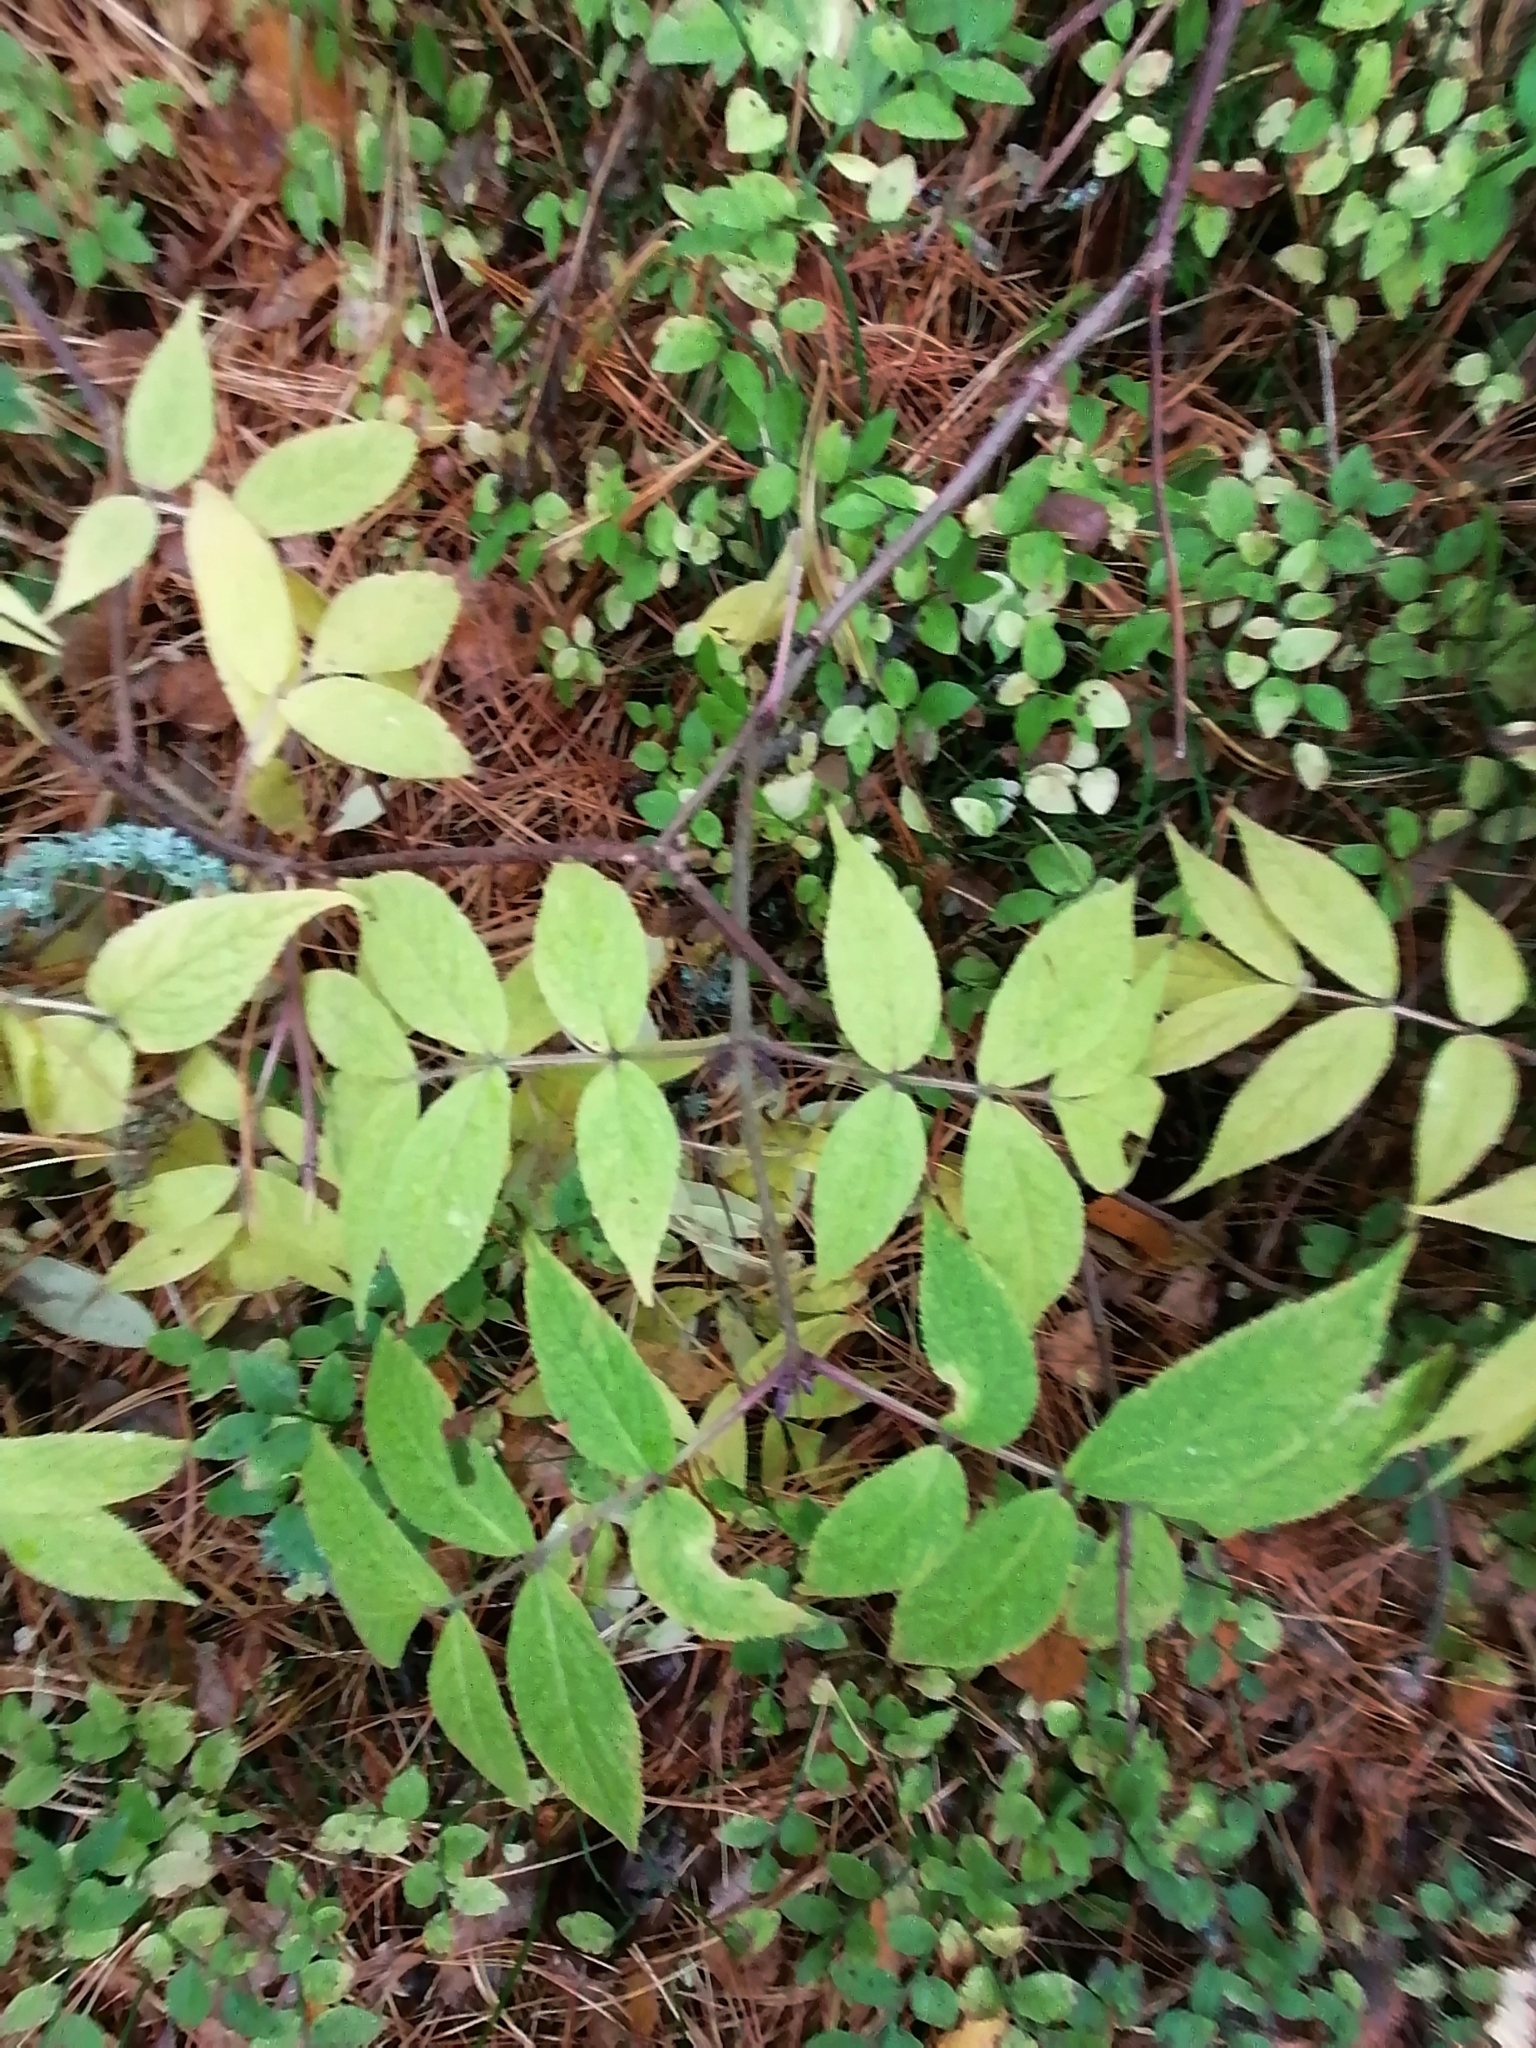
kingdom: Plantae
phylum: Tracheophyta
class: Magnoliopsida
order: Dipsacales
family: Viburnaceae
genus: Sambucus
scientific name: Sambucus sibirica
